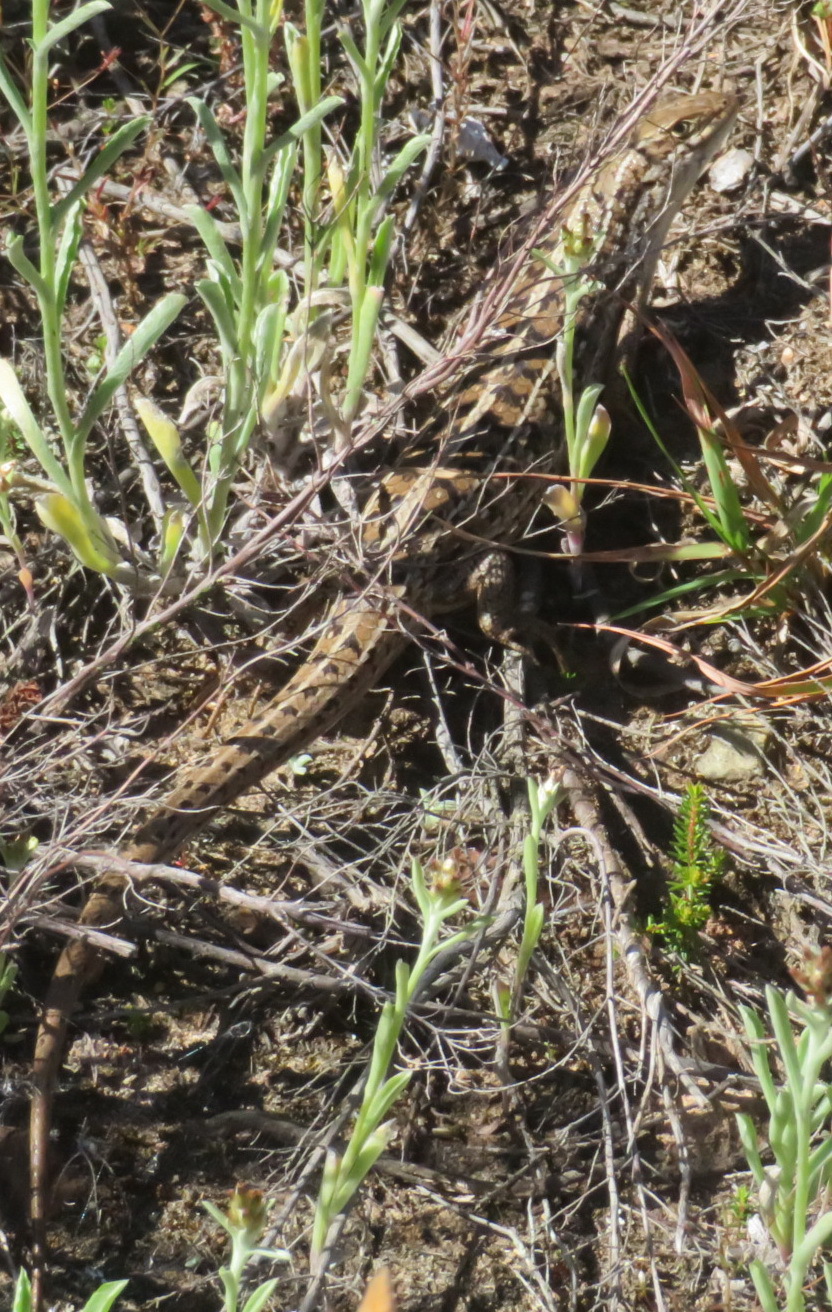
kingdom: Animalia
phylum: Chordata
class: Squamata
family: Scincidae
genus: Trachylepis
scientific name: Trachylepis capensis
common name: Cape skink
